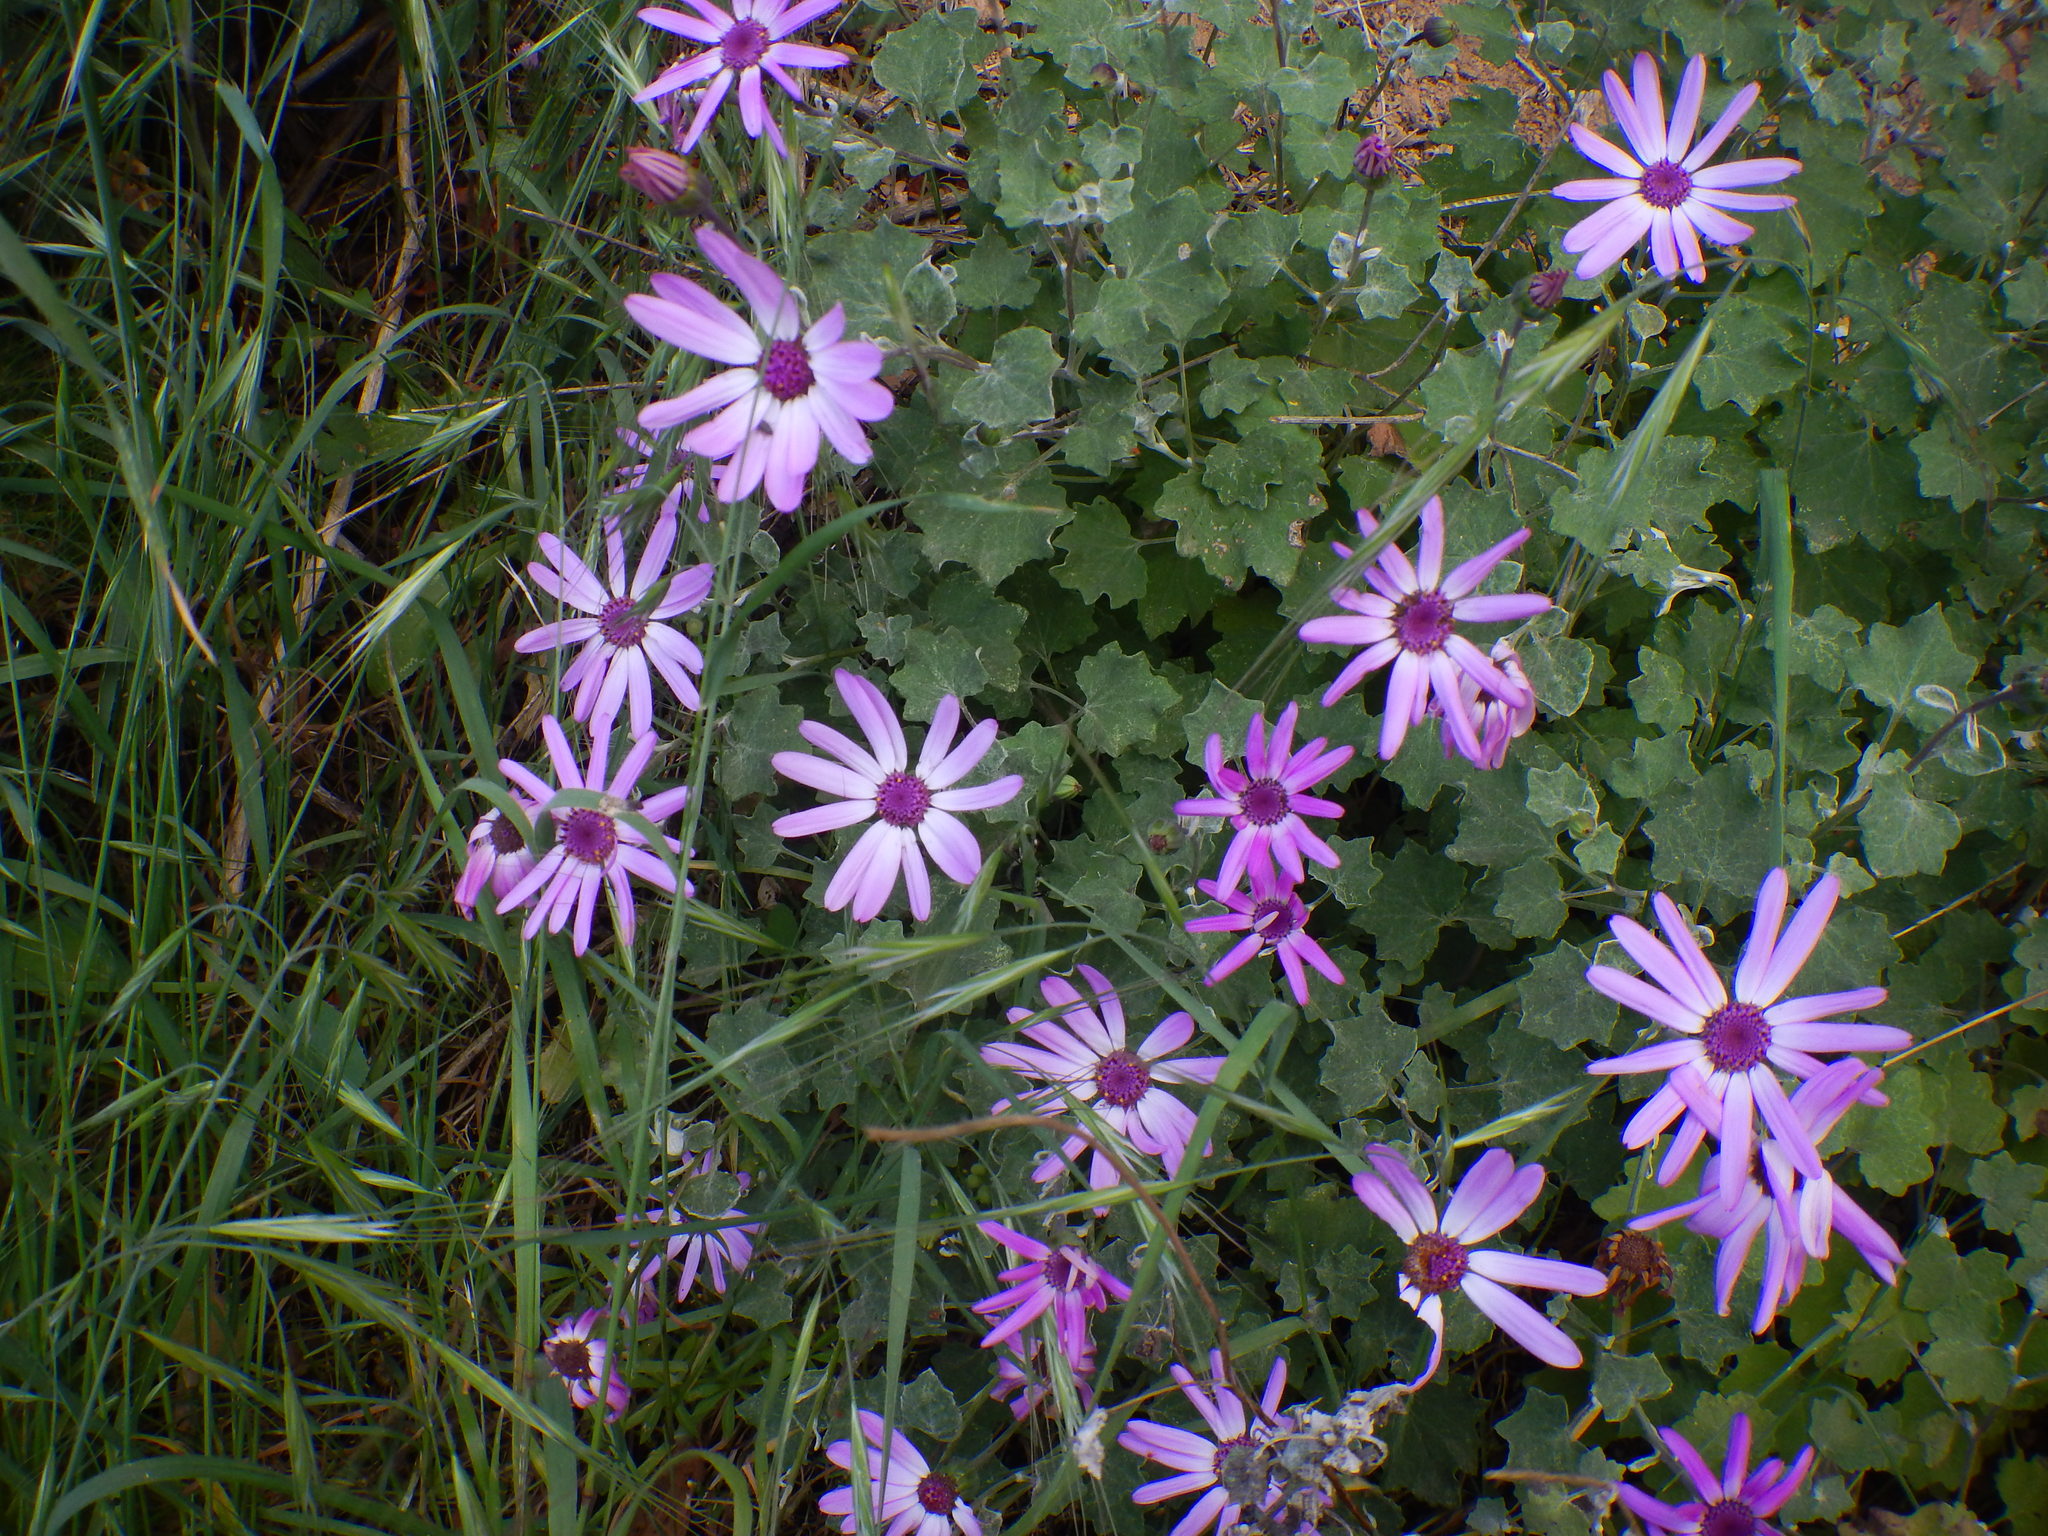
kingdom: Plantae
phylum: Tracheophyta
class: Magnoliopsida
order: Asterales
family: Asteraceae
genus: Pericallis
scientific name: Pericallis lanata
